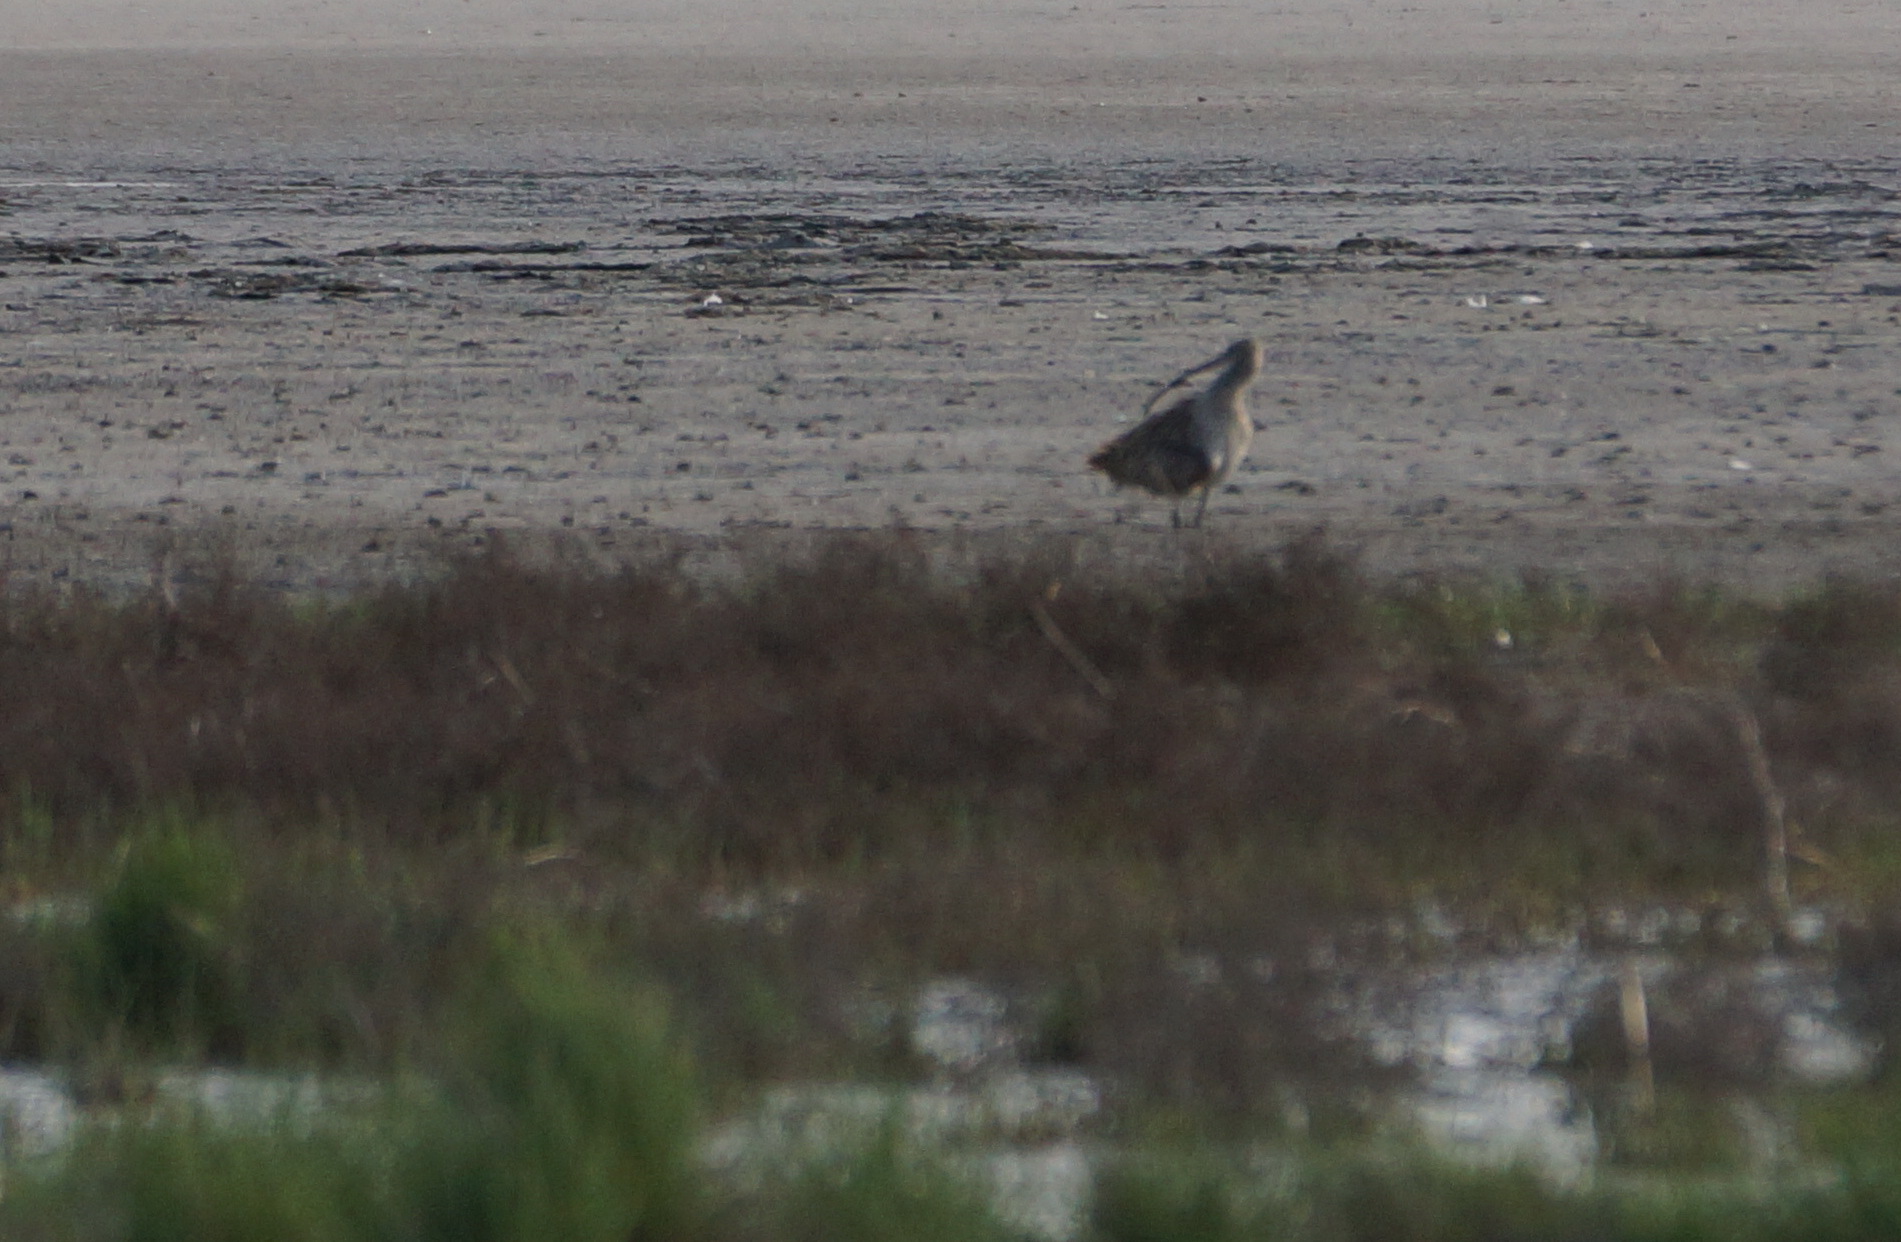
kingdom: Animalia
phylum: Chordata
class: Aves
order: Charadriiformes
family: Scolopacidae
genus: Numenius
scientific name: Numenius arquata
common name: Eurasian curlew
